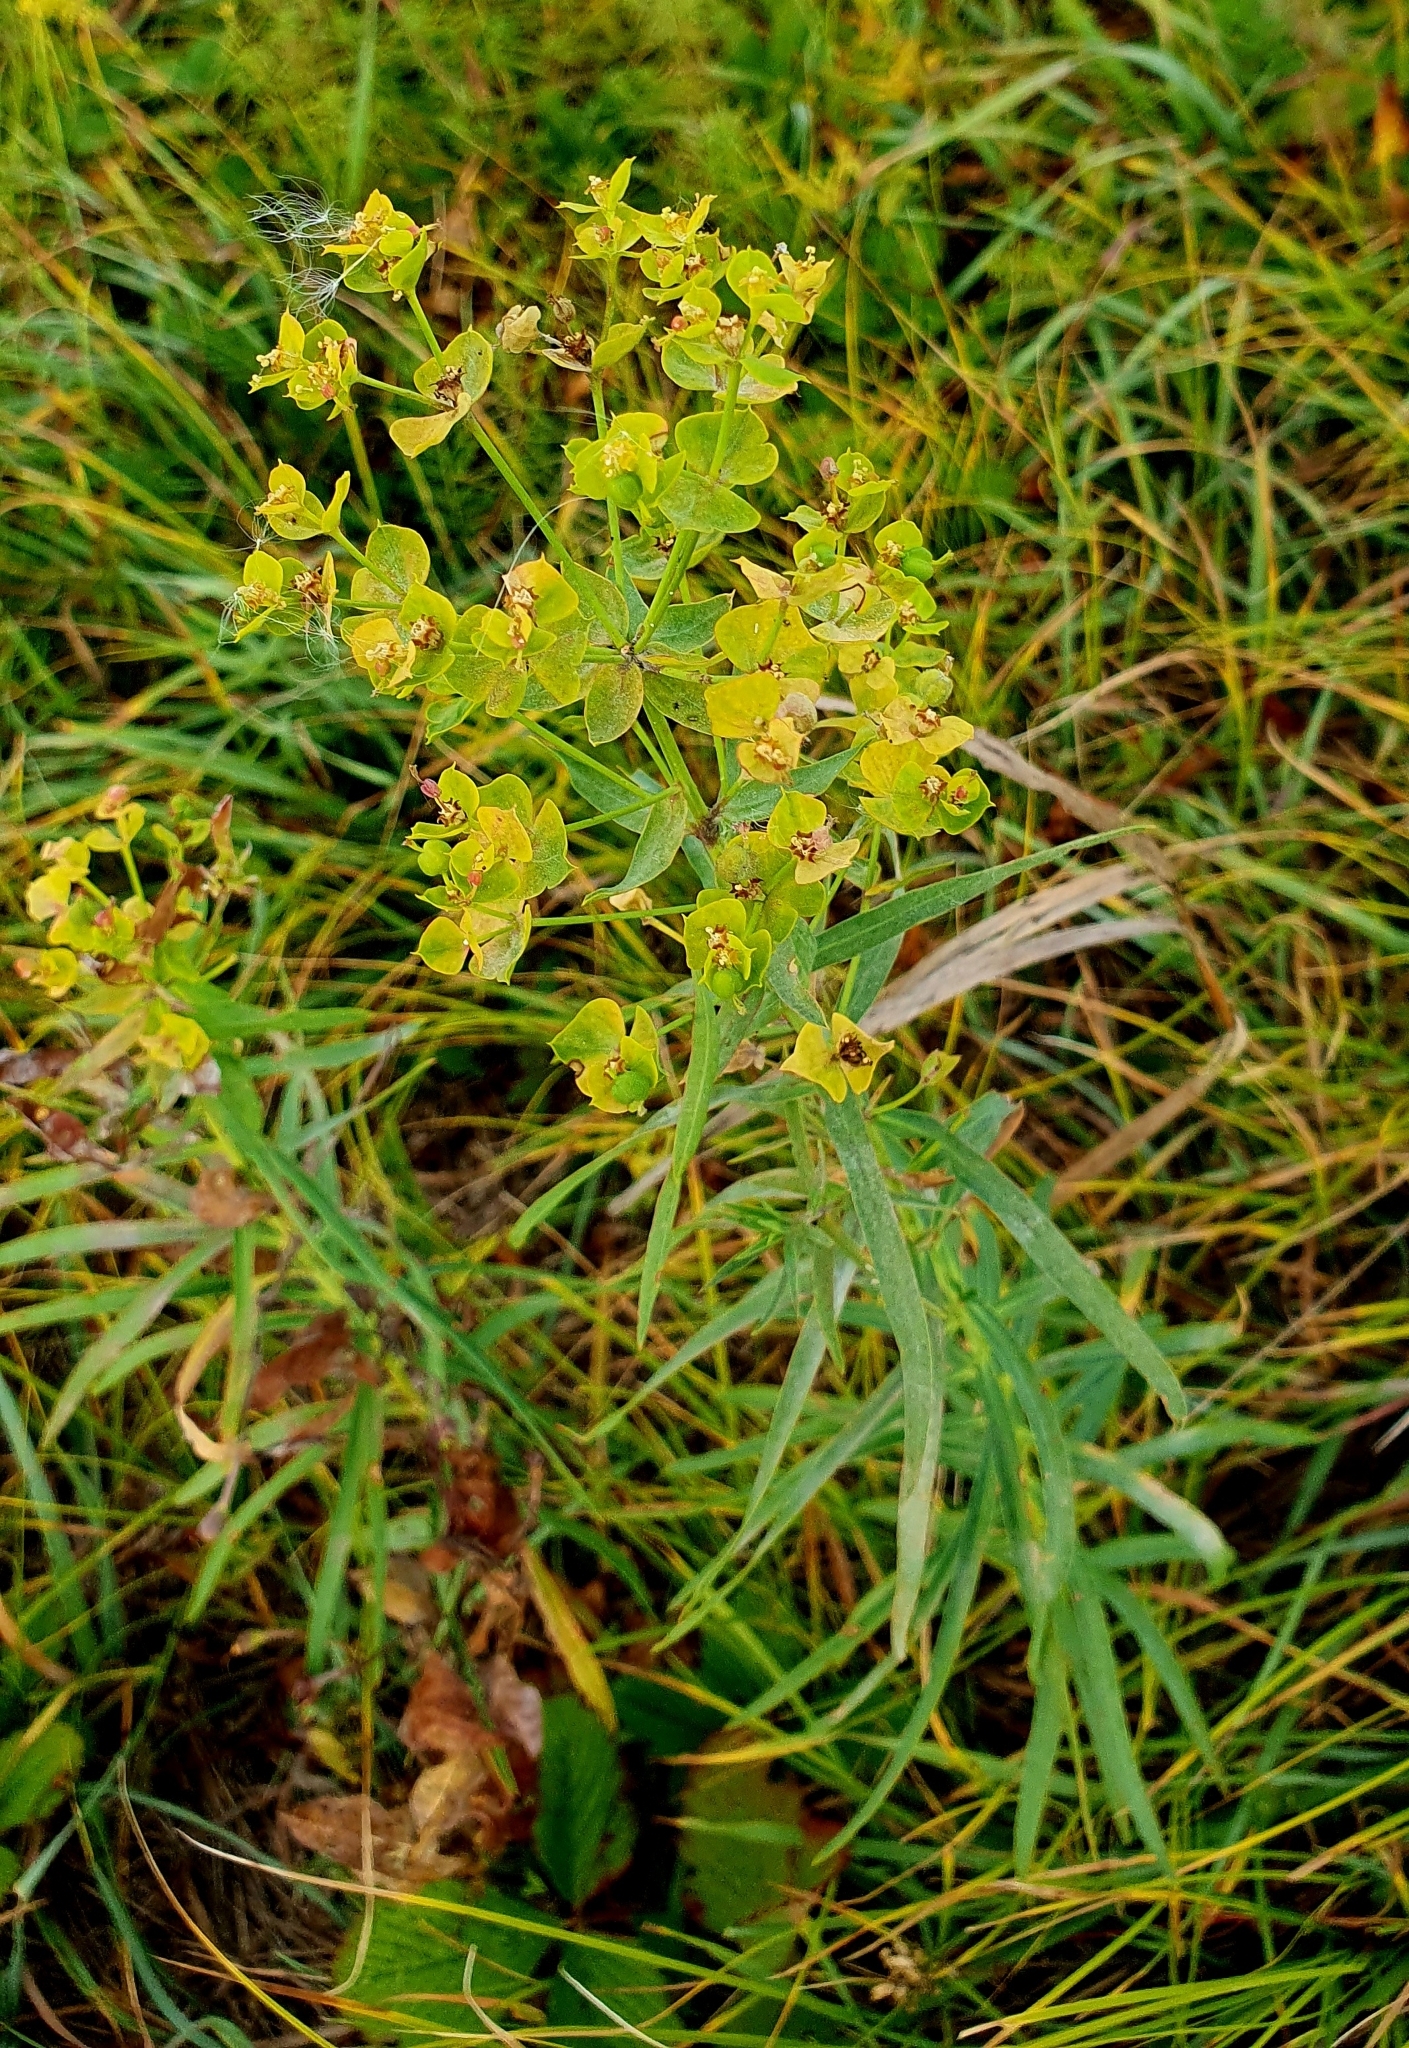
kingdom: Plantae
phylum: Tracheophyta
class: Magnoliopsida
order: Malpighiales
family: Euphorbiaceae
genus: Euphorbia
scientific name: Euphorbia virgata
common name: Leafy spurge
